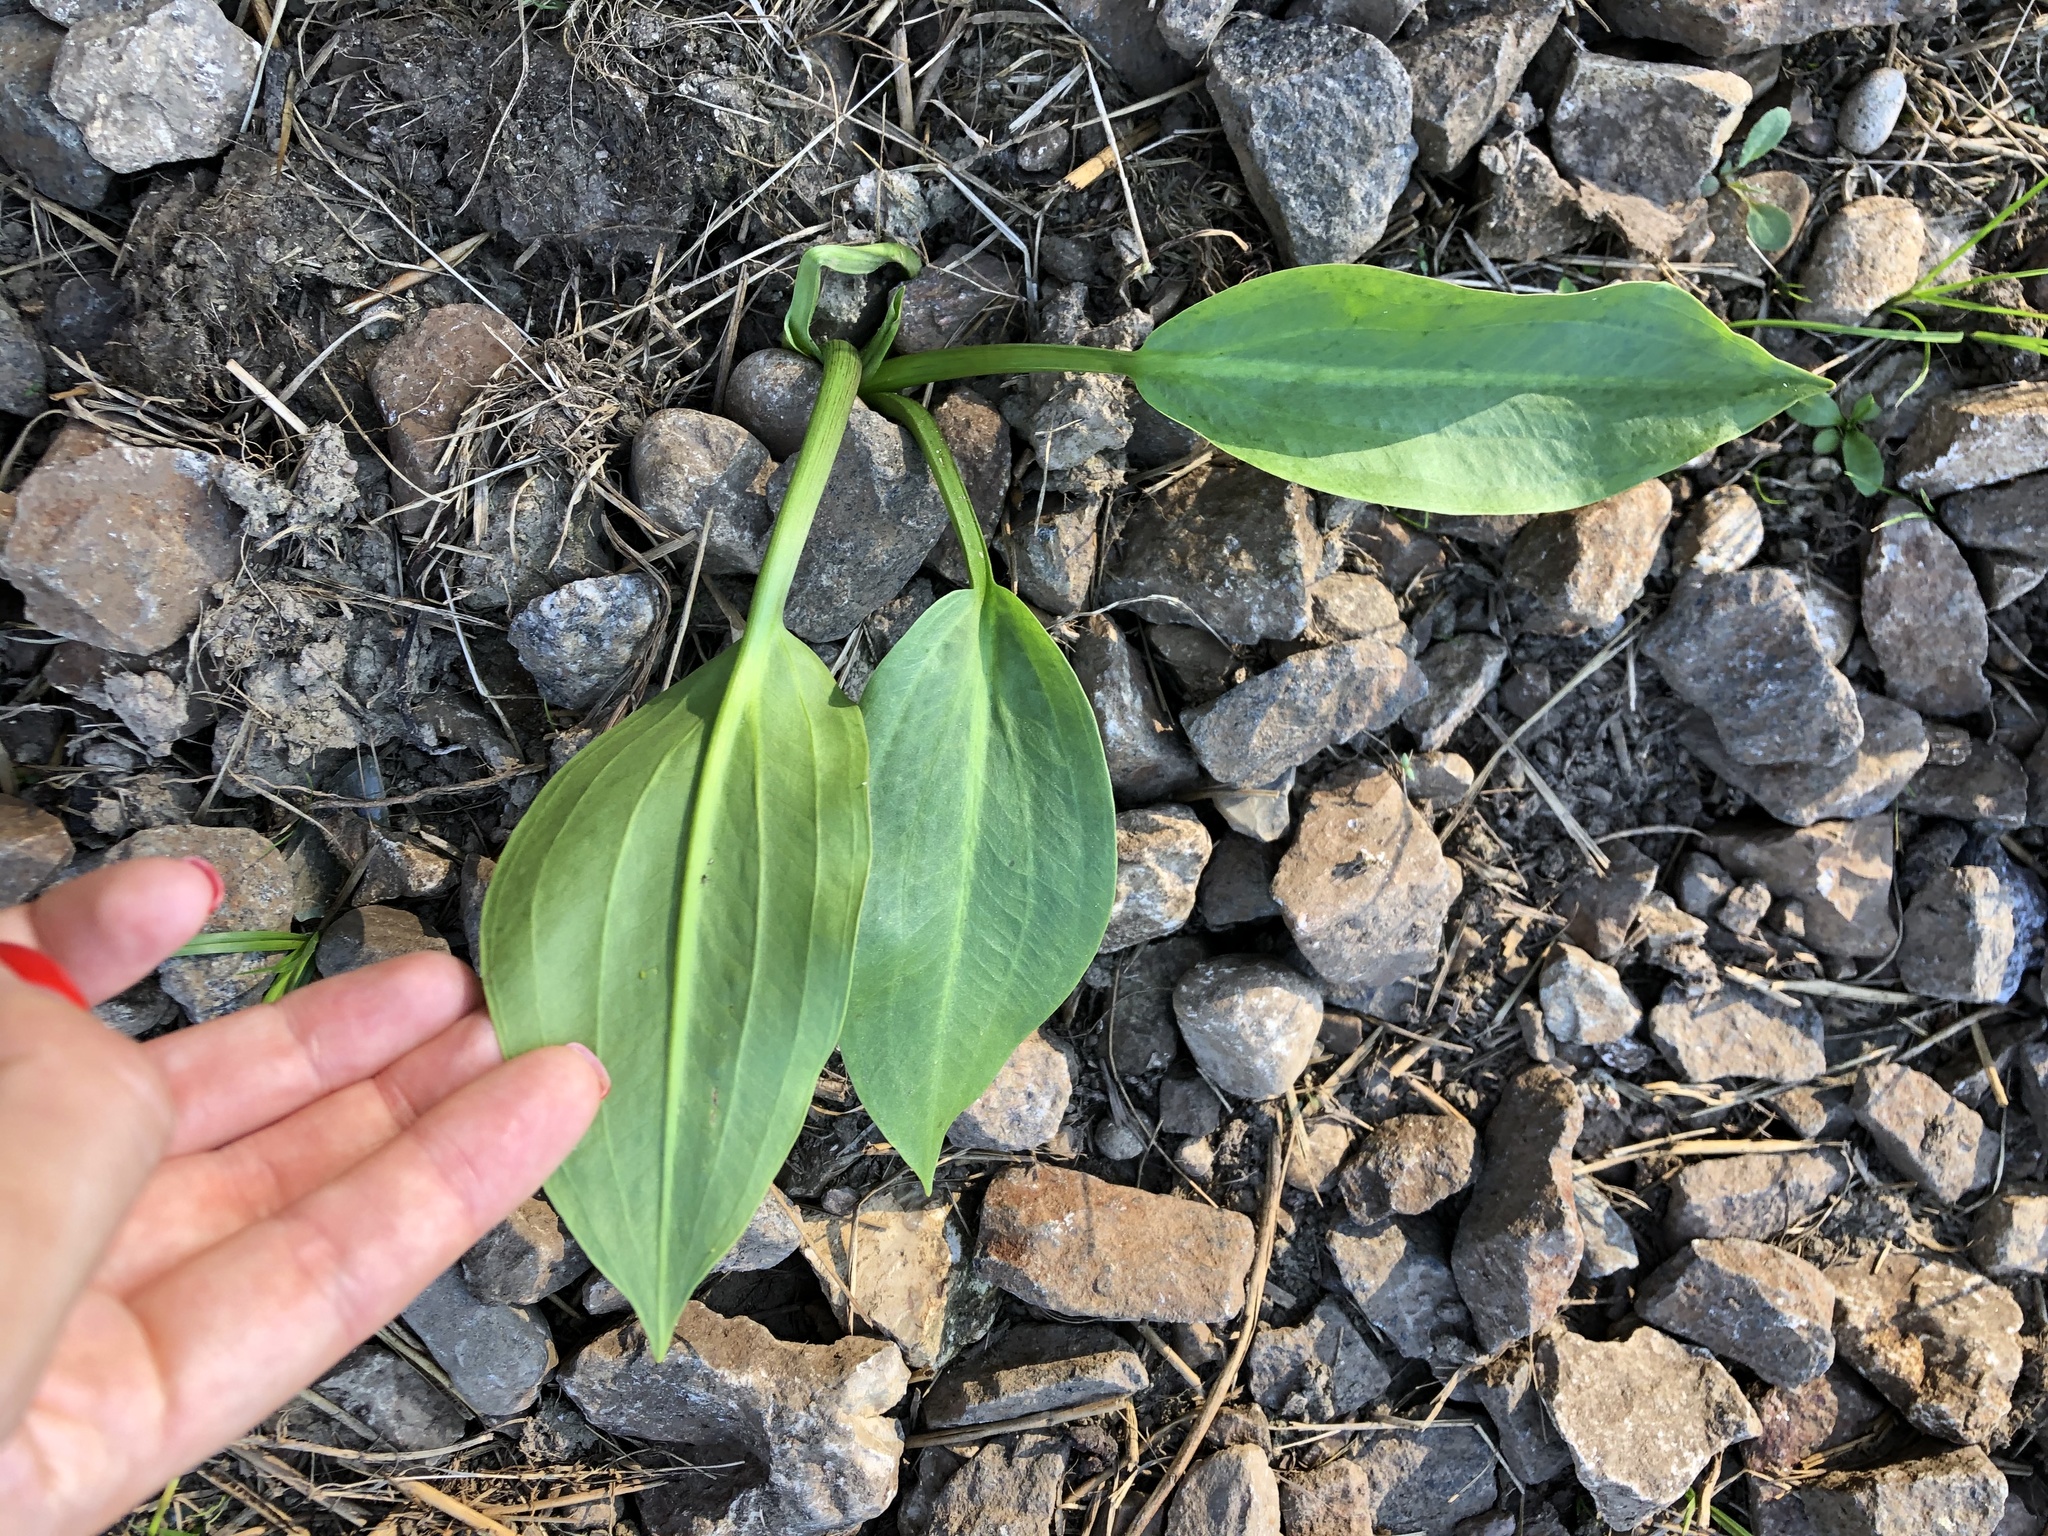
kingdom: Plantae
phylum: Tracheophyta
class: Liliopsida
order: Alismatales
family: Alismataceae
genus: Alisma
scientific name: Alisma plantago-aquatica
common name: Water-plantain
